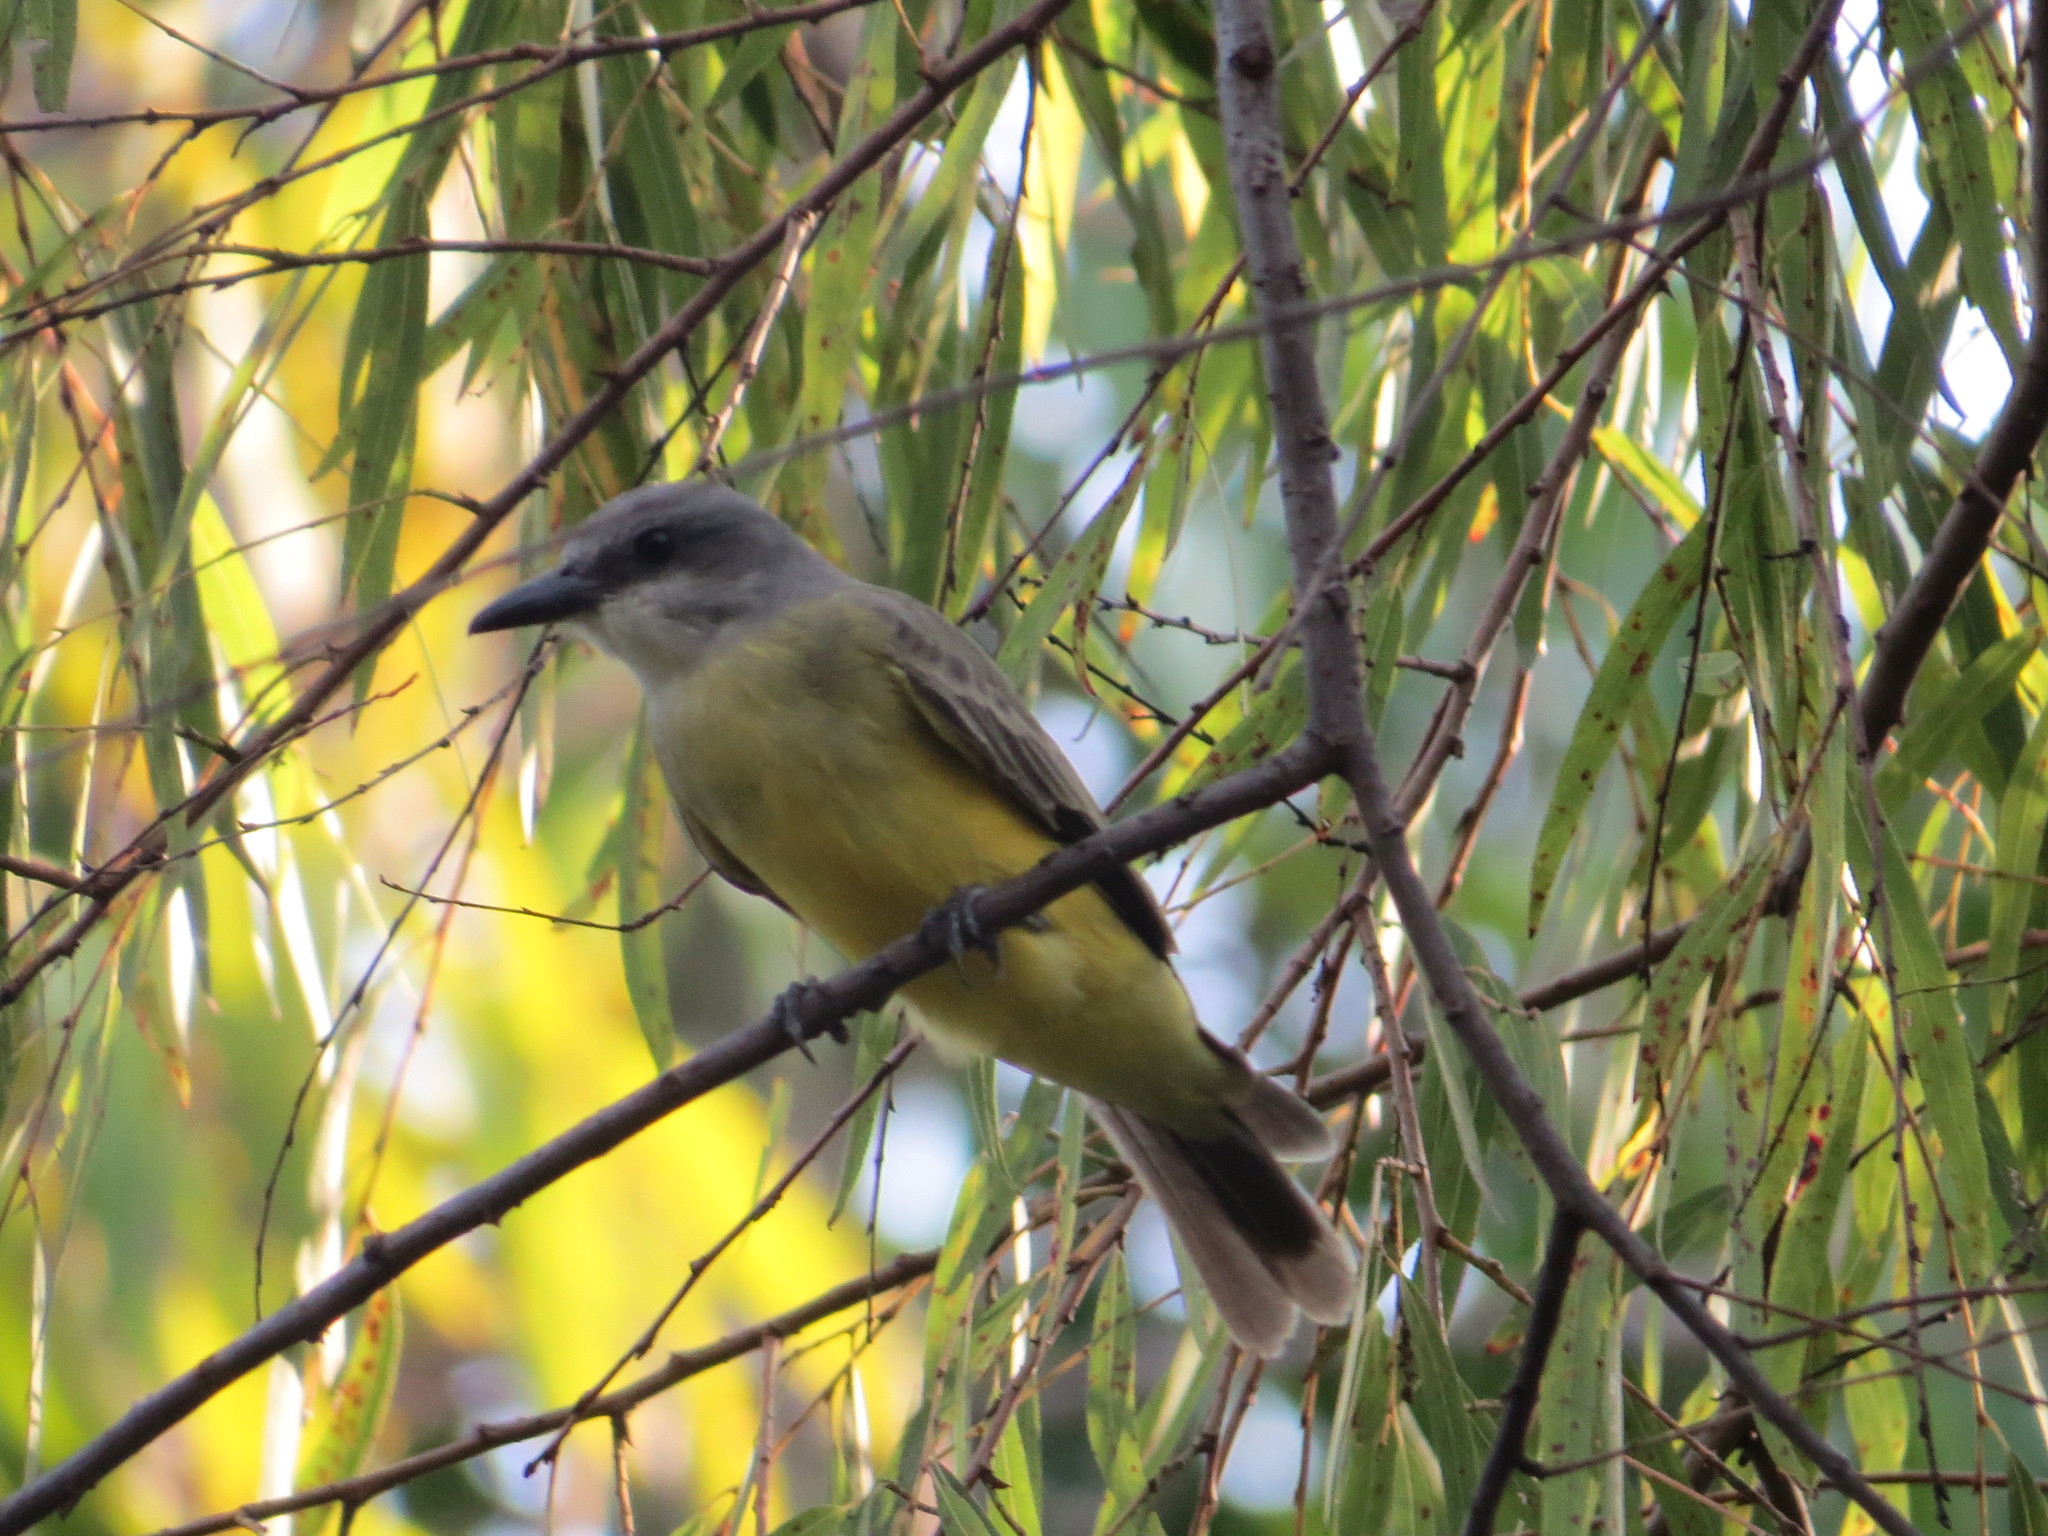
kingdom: Animalia
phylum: Chordata
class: Aves
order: Passeriformes
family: Tyrannidae
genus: Tyrannus
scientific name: Tyrannus melancholicus
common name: Tropical kingbird
